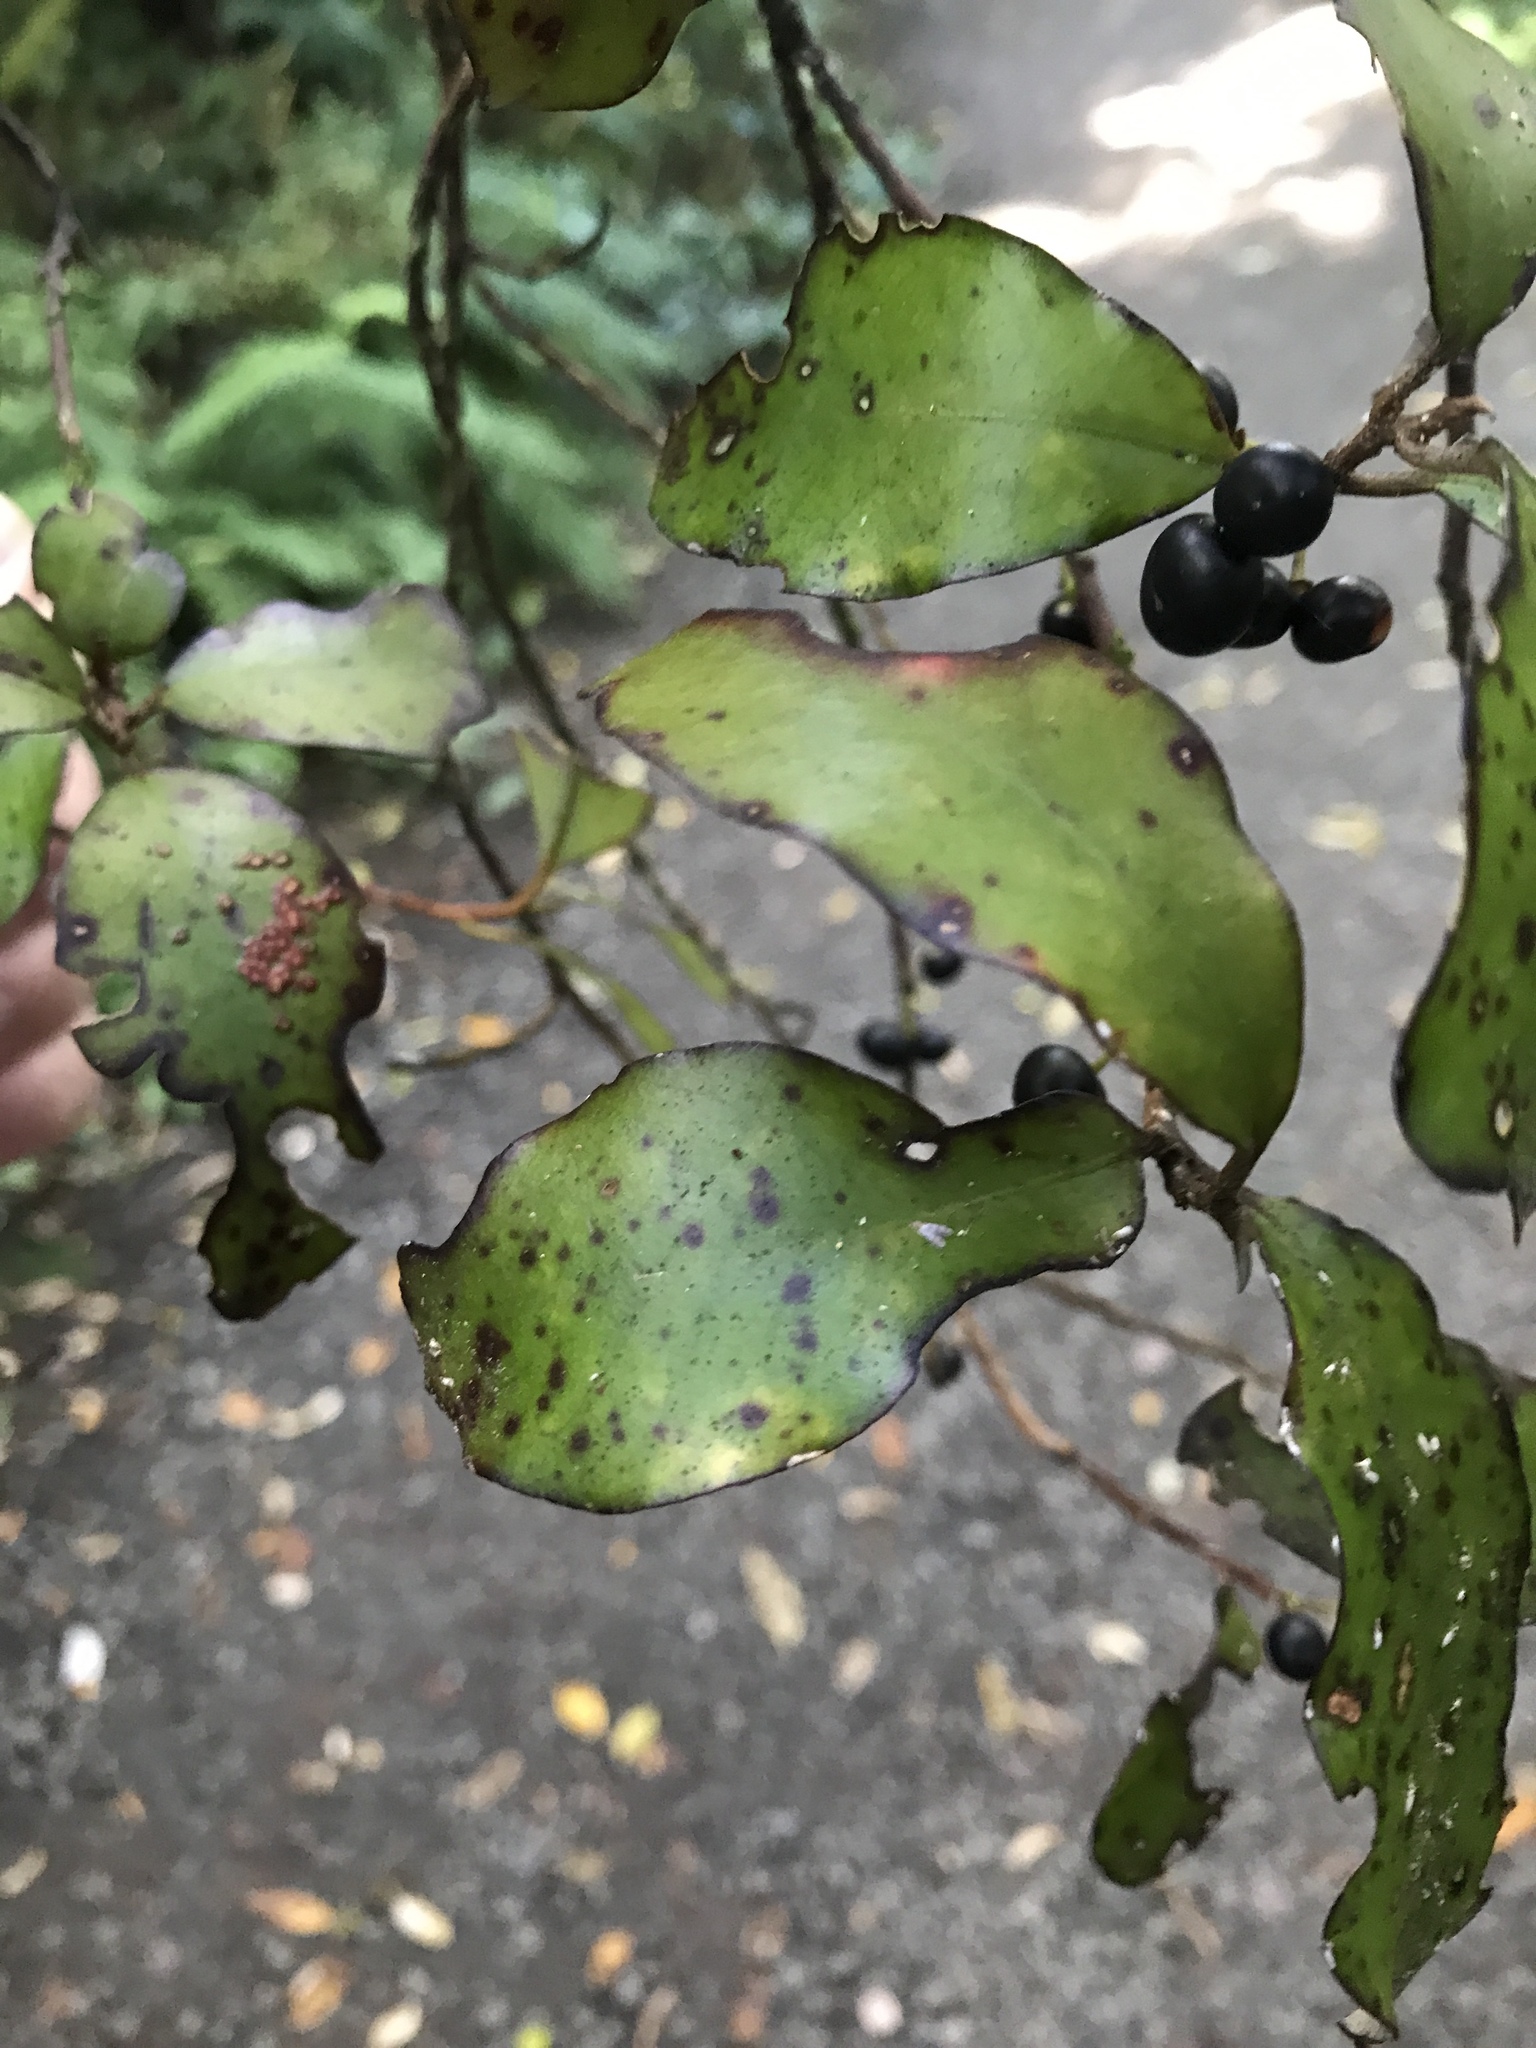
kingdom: Plantae
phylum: Tracheophyta
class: Magnoliopsida
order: Canellales
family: Winteraceae
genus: Pseudowintera
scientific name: Pseudowintera colorata
